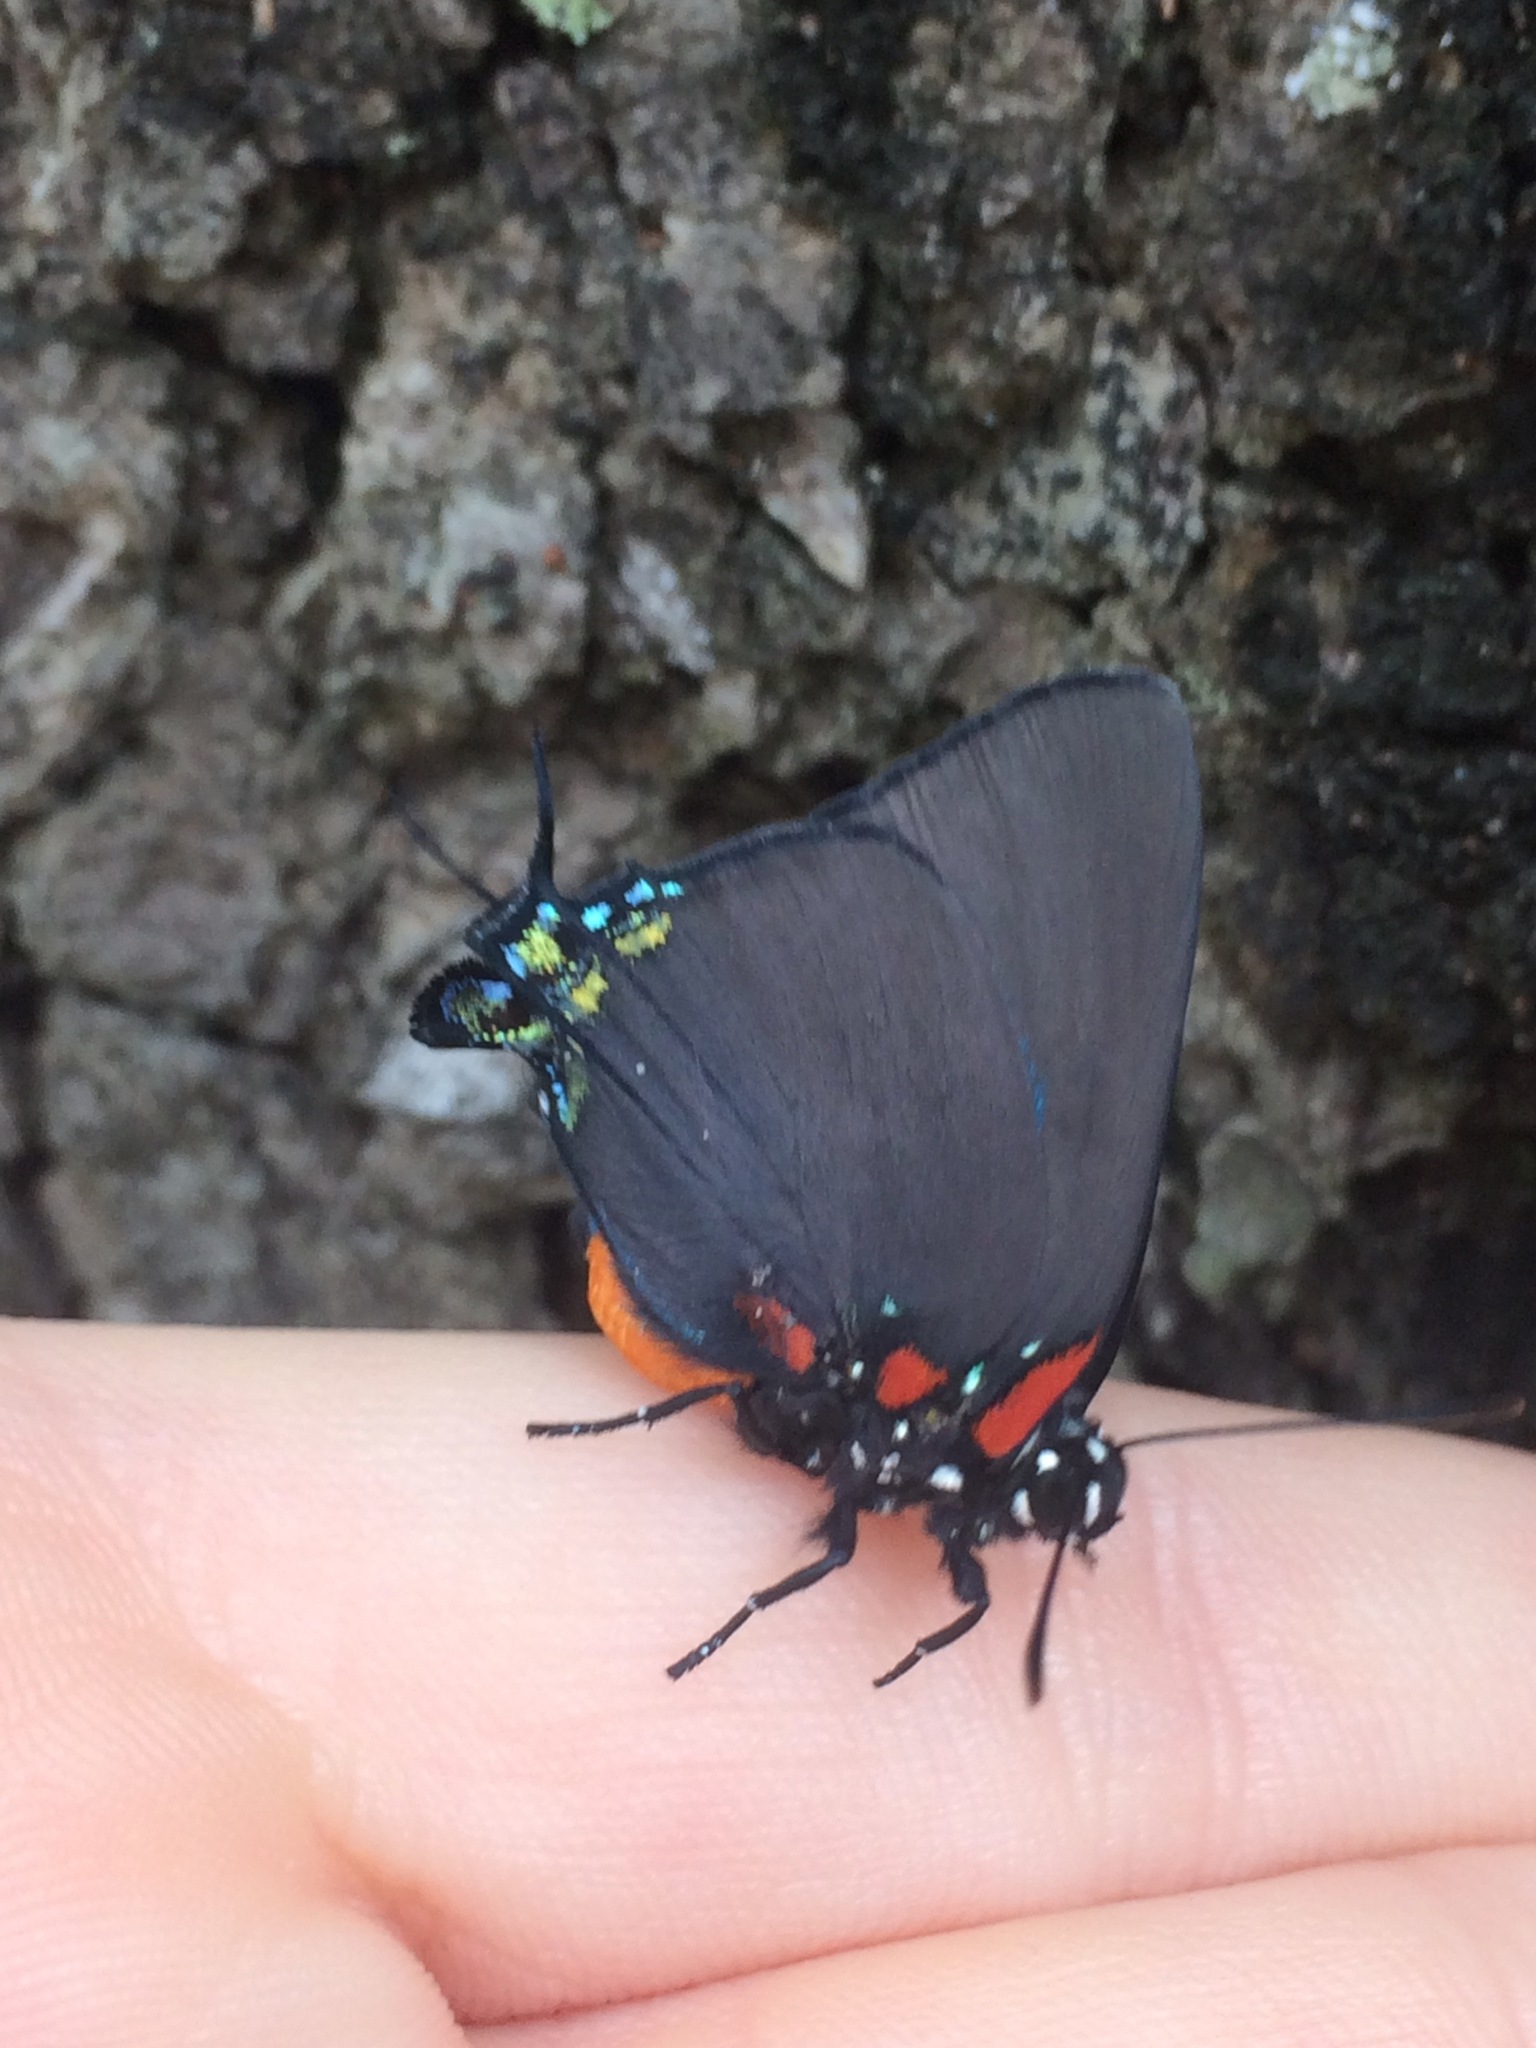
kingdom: Animalia
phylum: Arthropoda
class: Insecta
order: Lepidoptera
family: Lycaenidae
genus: Atlides
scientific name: Atlides halesus
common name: Great purple hairstreak
